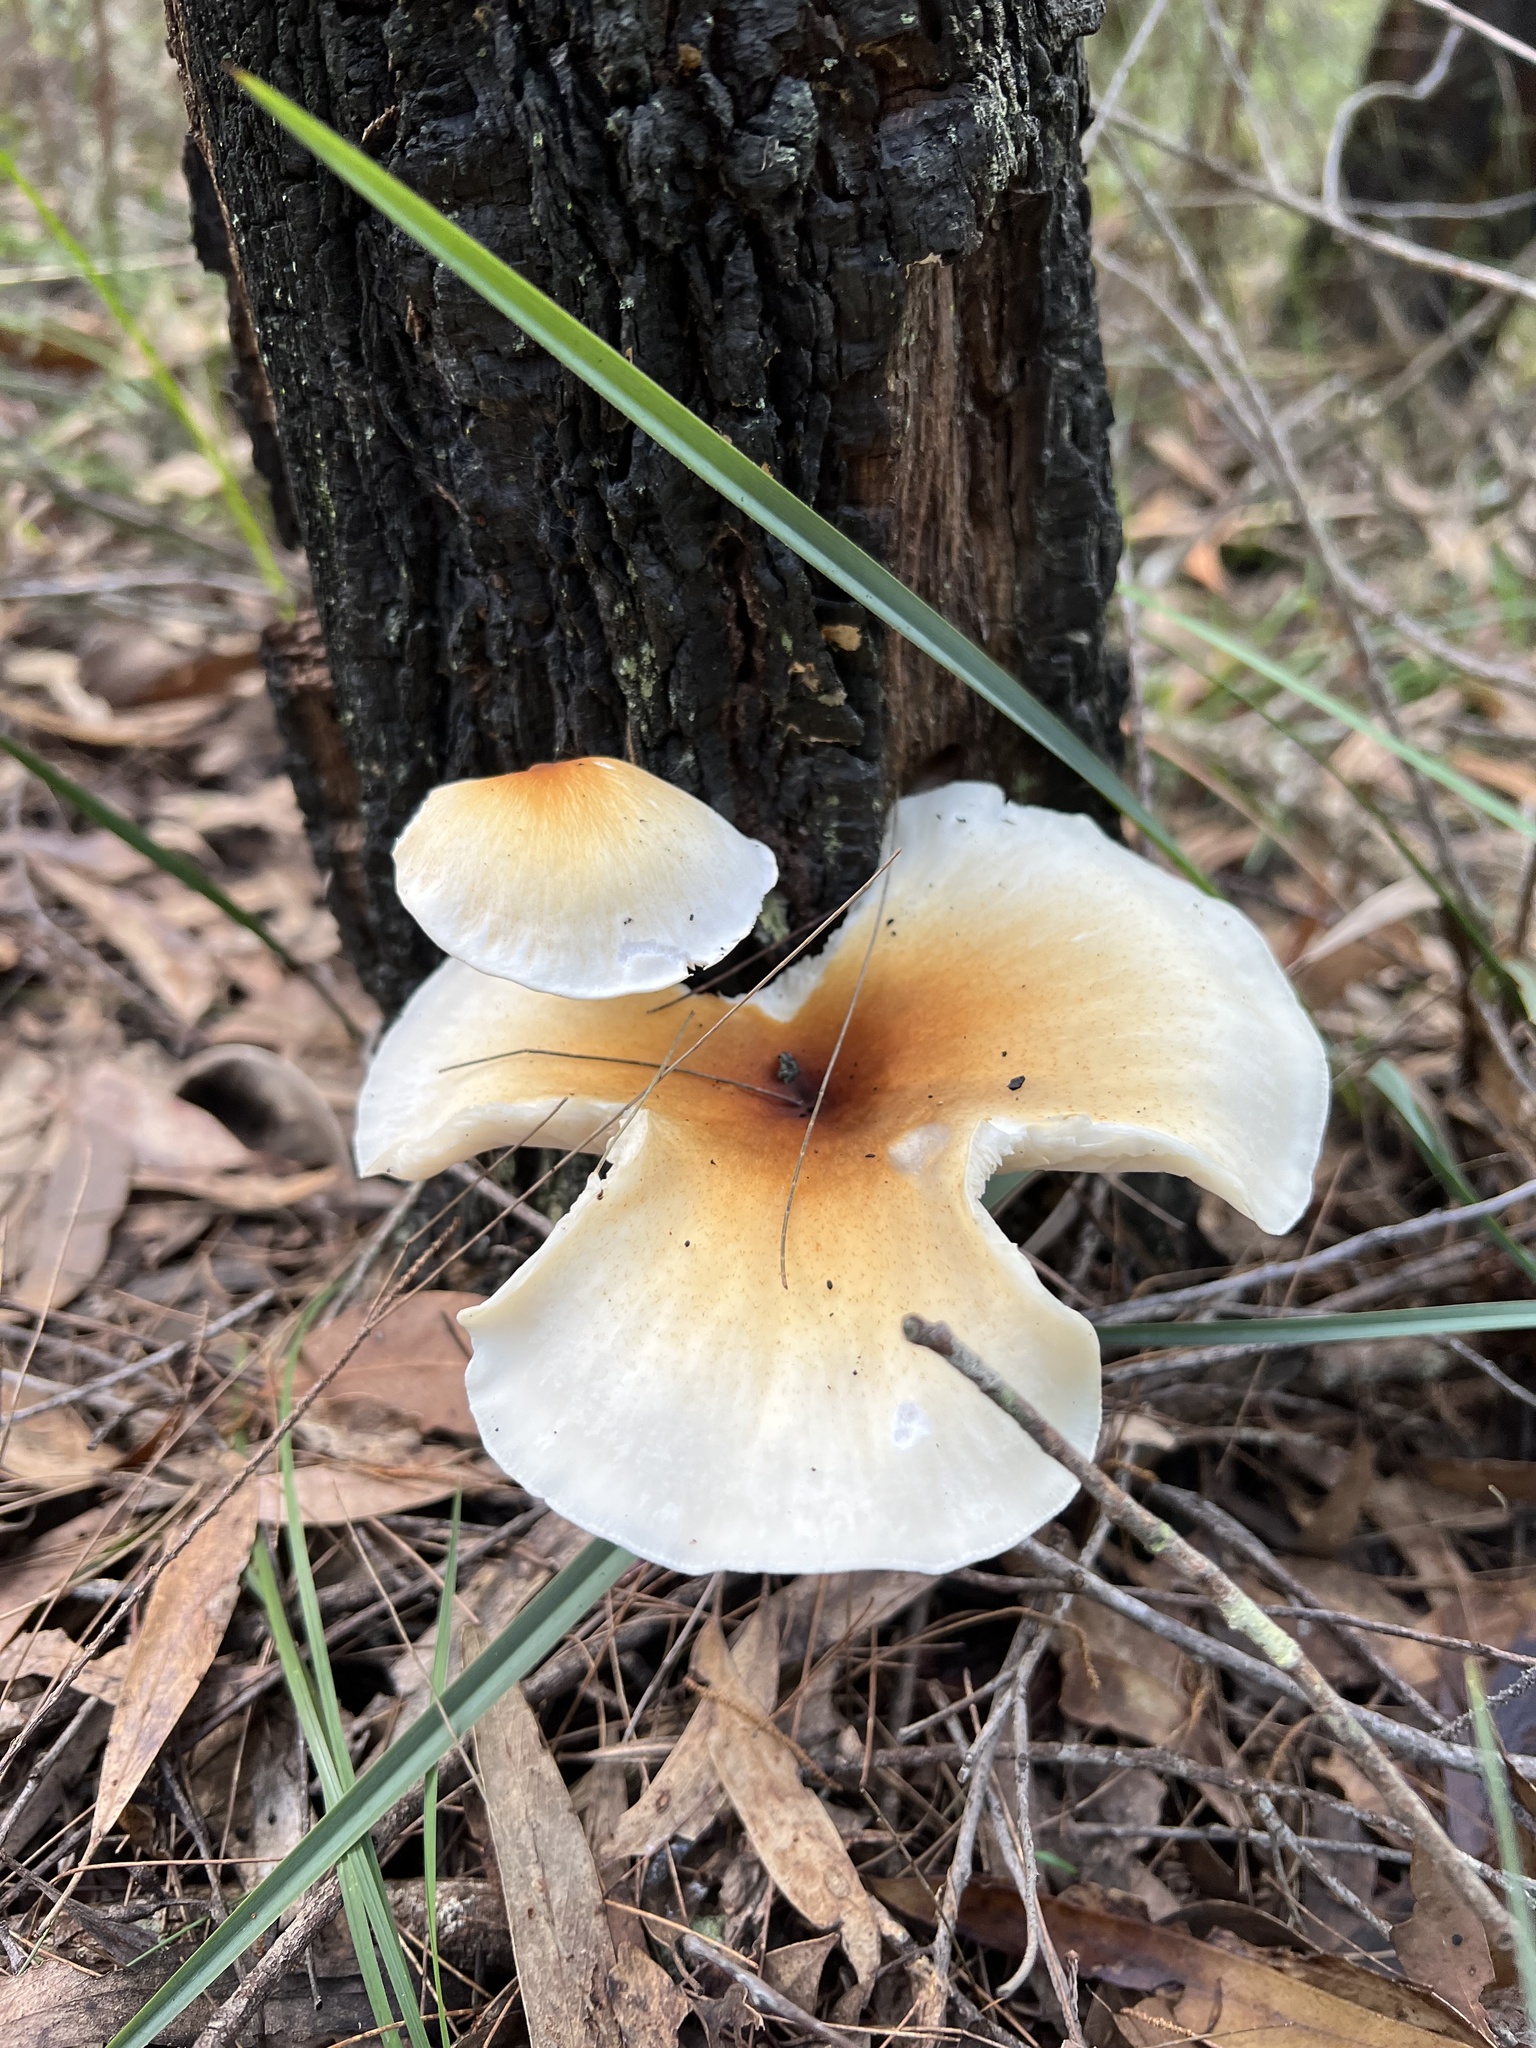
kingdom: Fungi
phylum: Basidiomycota
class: Agaricomycetes
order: Agaricales
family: Omphalotaceae
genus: Omphalotus
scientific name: Omphalotus nidiformis
